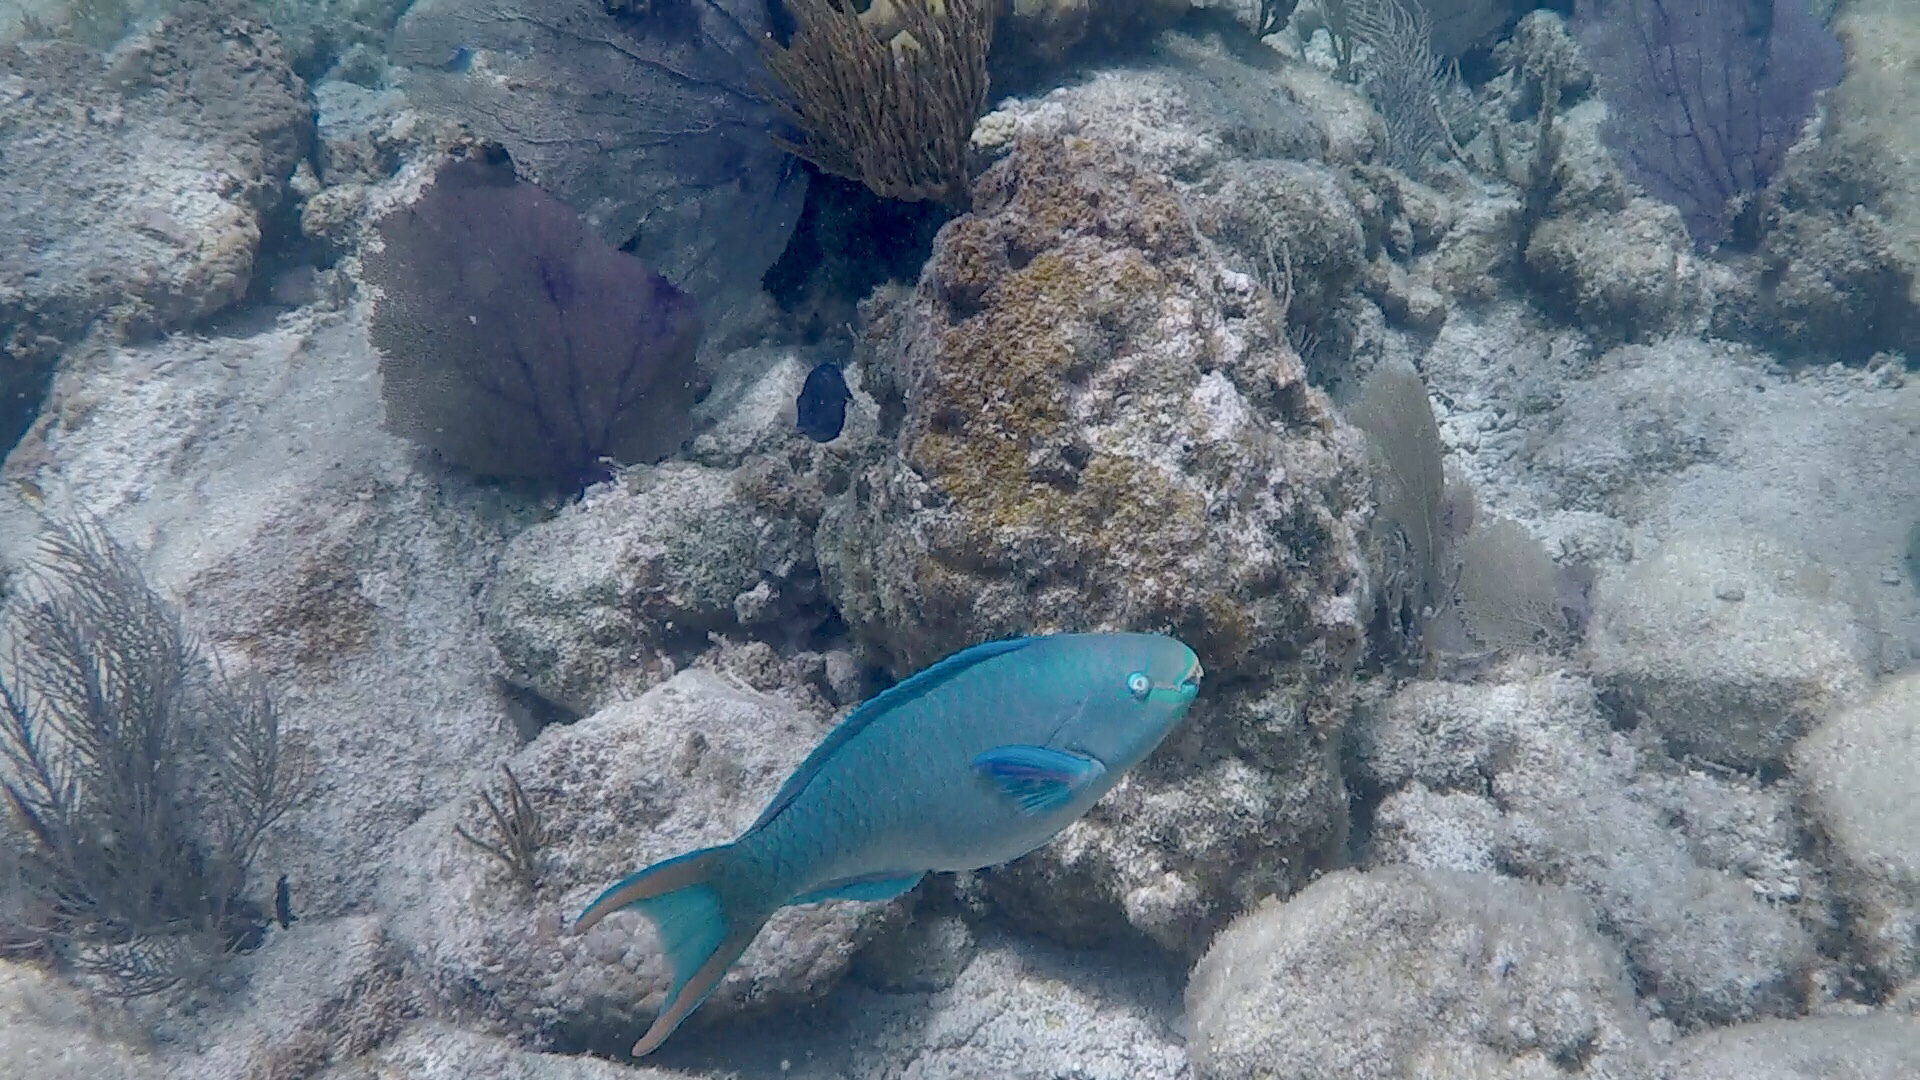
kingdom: Animalia
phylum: Chordata
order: Perciformes
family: Scaridae
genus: Scarus
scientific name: Scarus vetula
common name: Queen parrotfish
